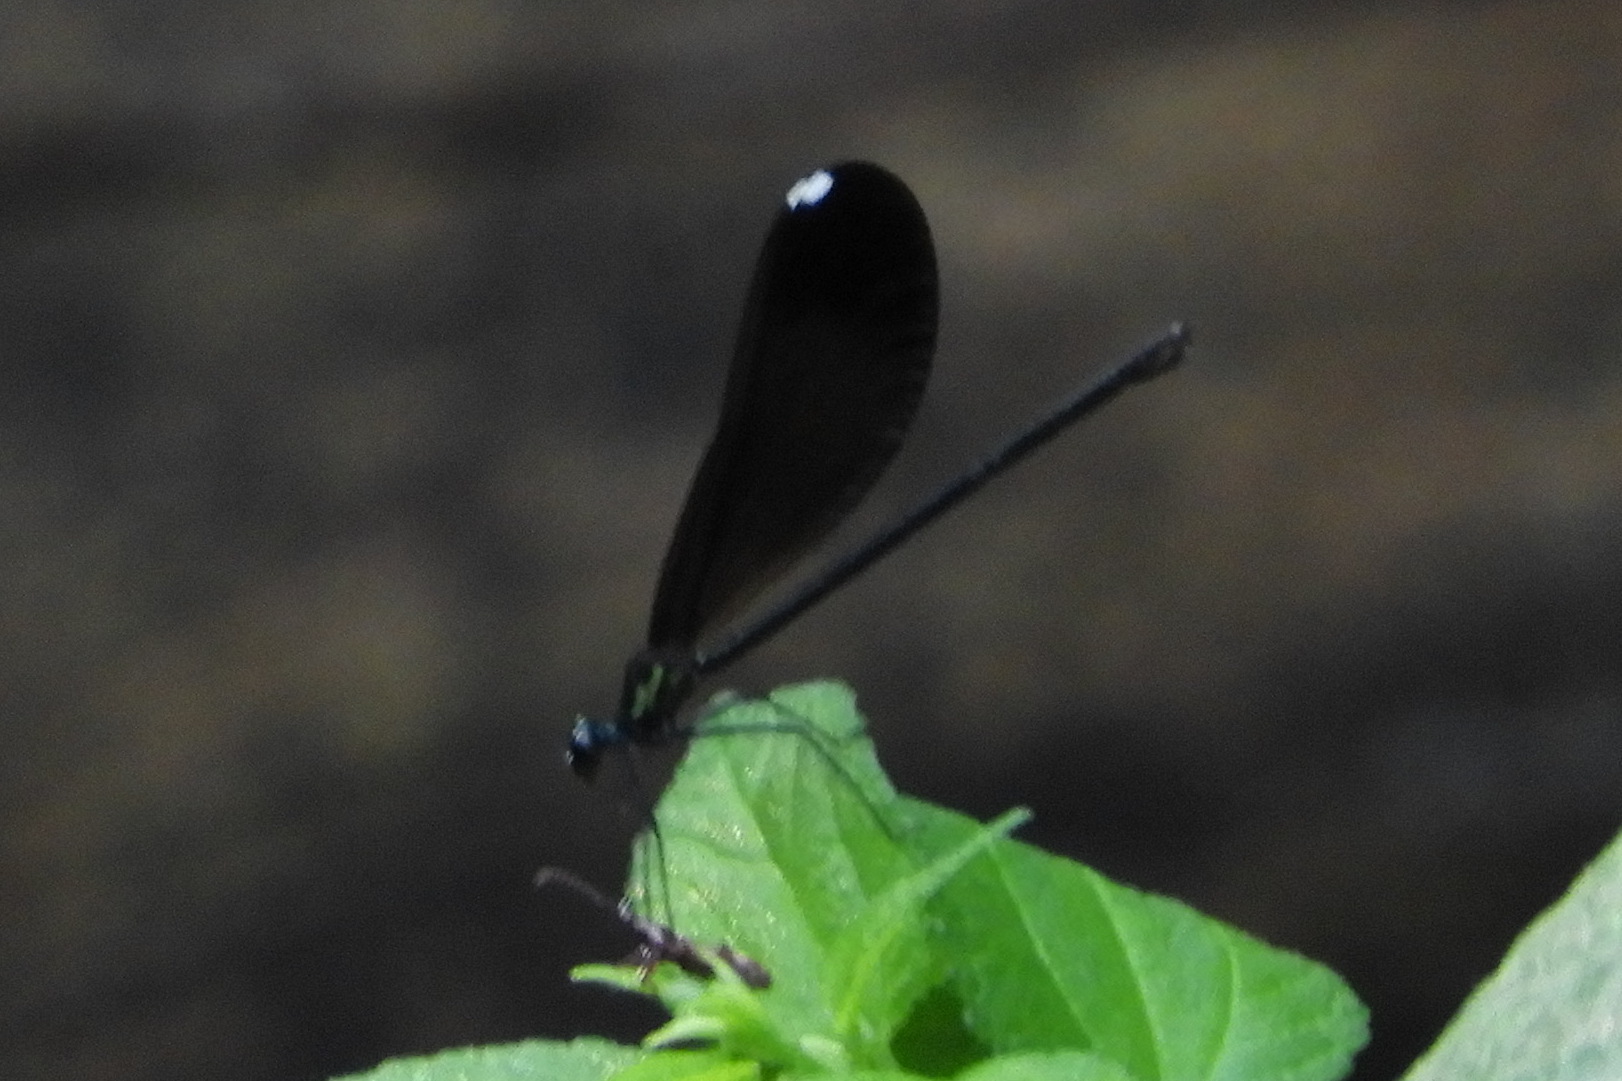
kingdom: Animalia
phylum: Arthropoda
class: Insecta
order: Odonata
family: Calopterygidae
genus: Calopteryx
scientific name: Calopteryx maculata
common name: Ebony jewelwing
